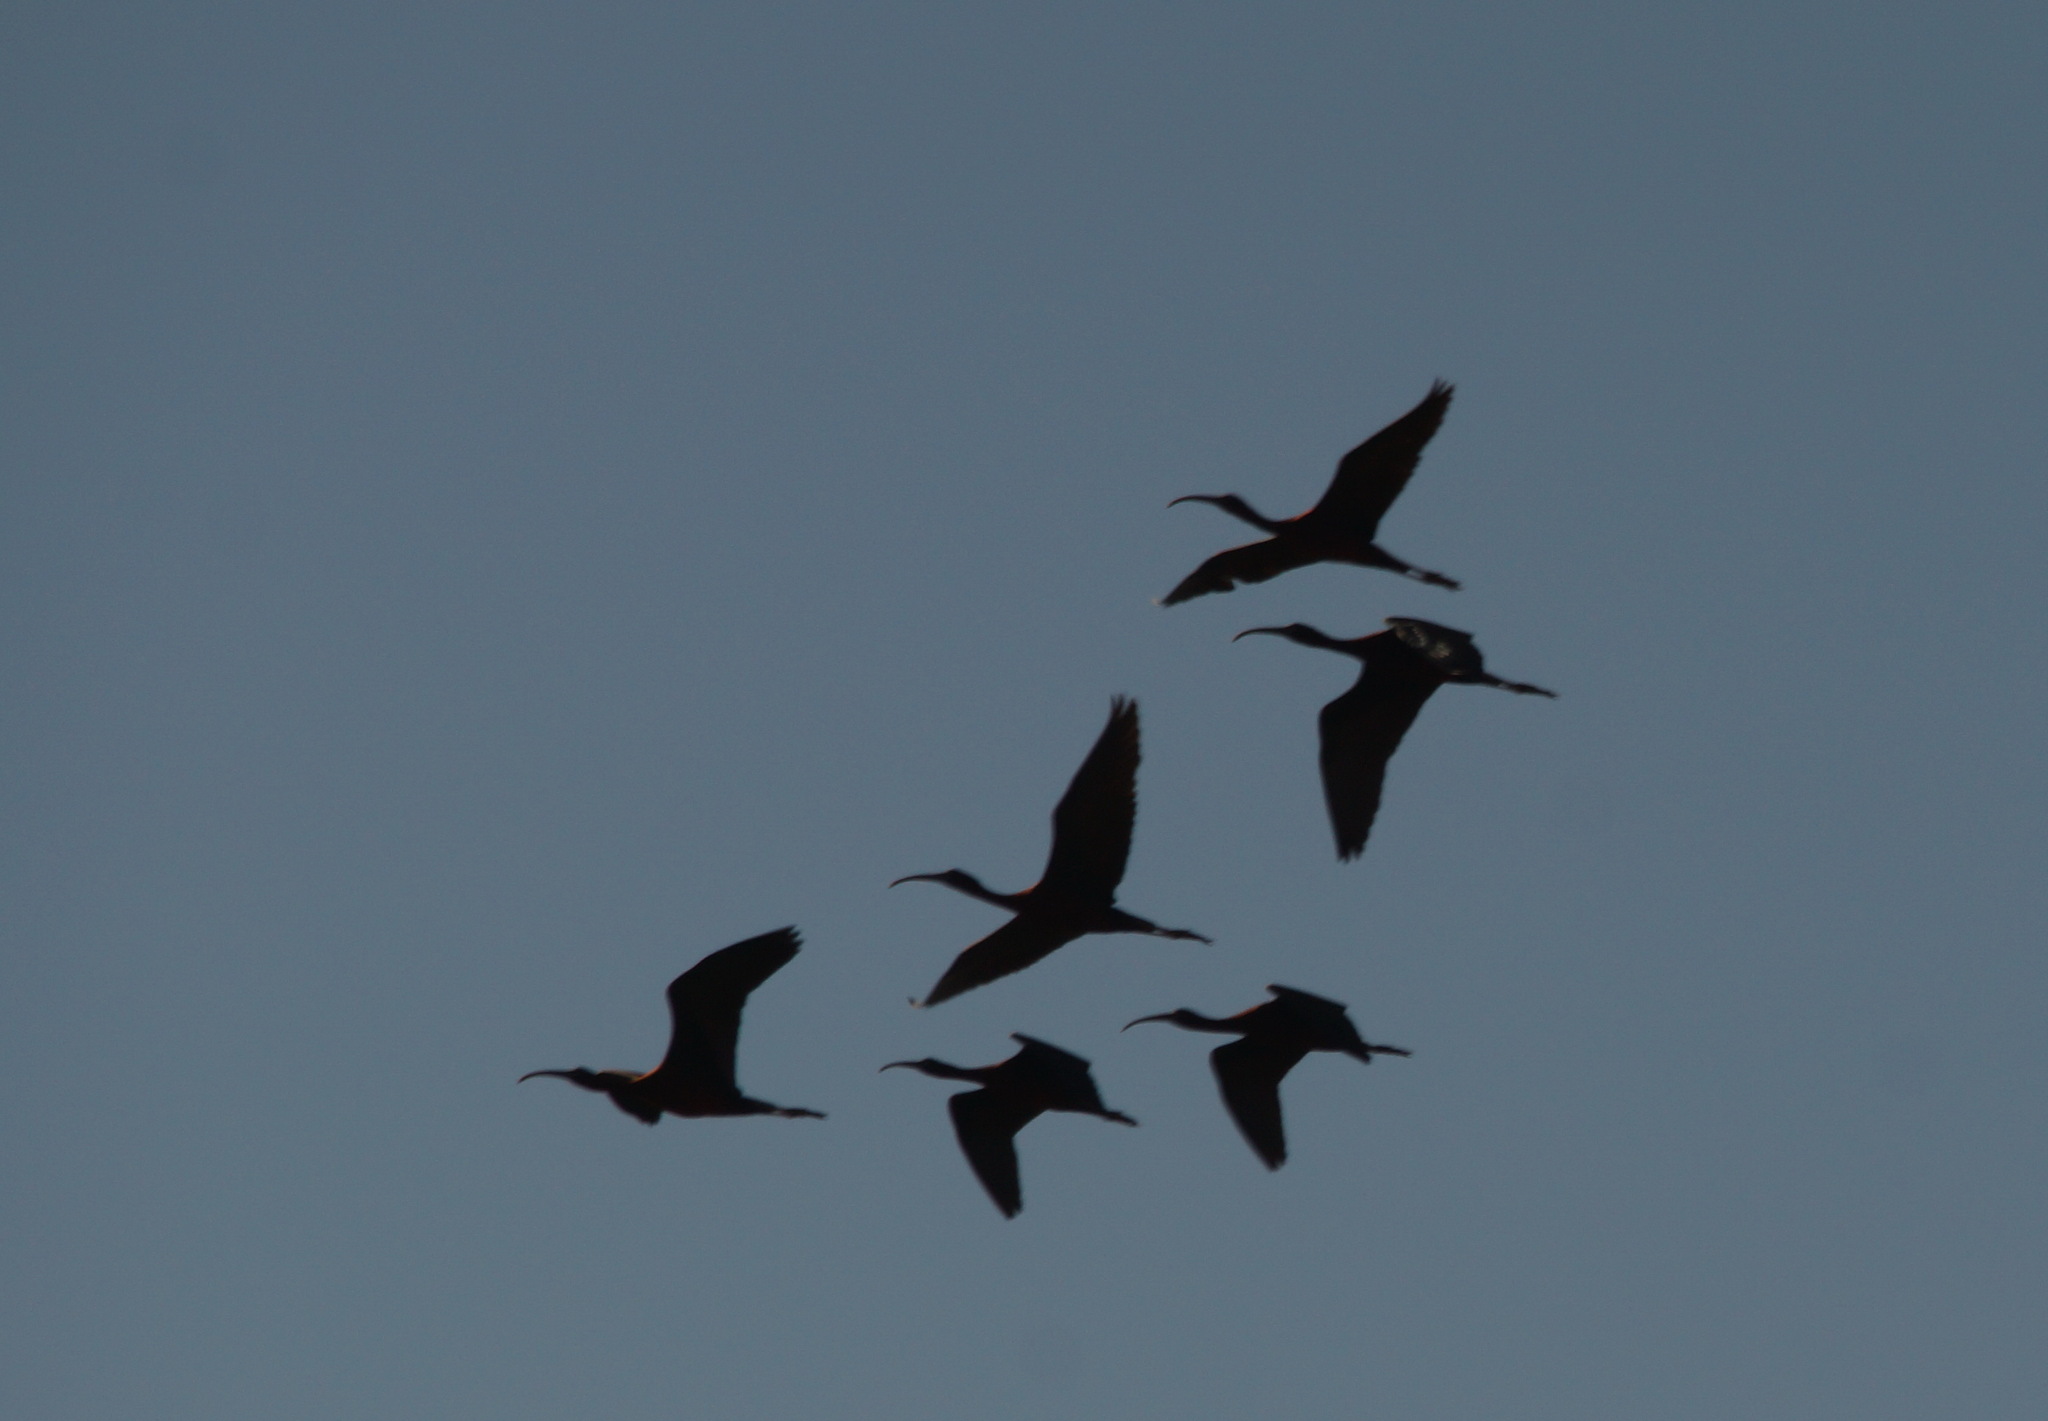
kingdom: Animalia
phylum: Chordata
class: Aves
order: Pelecaniformes
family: Threskiornithidae
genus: Plegadis
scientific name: Plegadis falcinellus
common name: Glossy ibis
